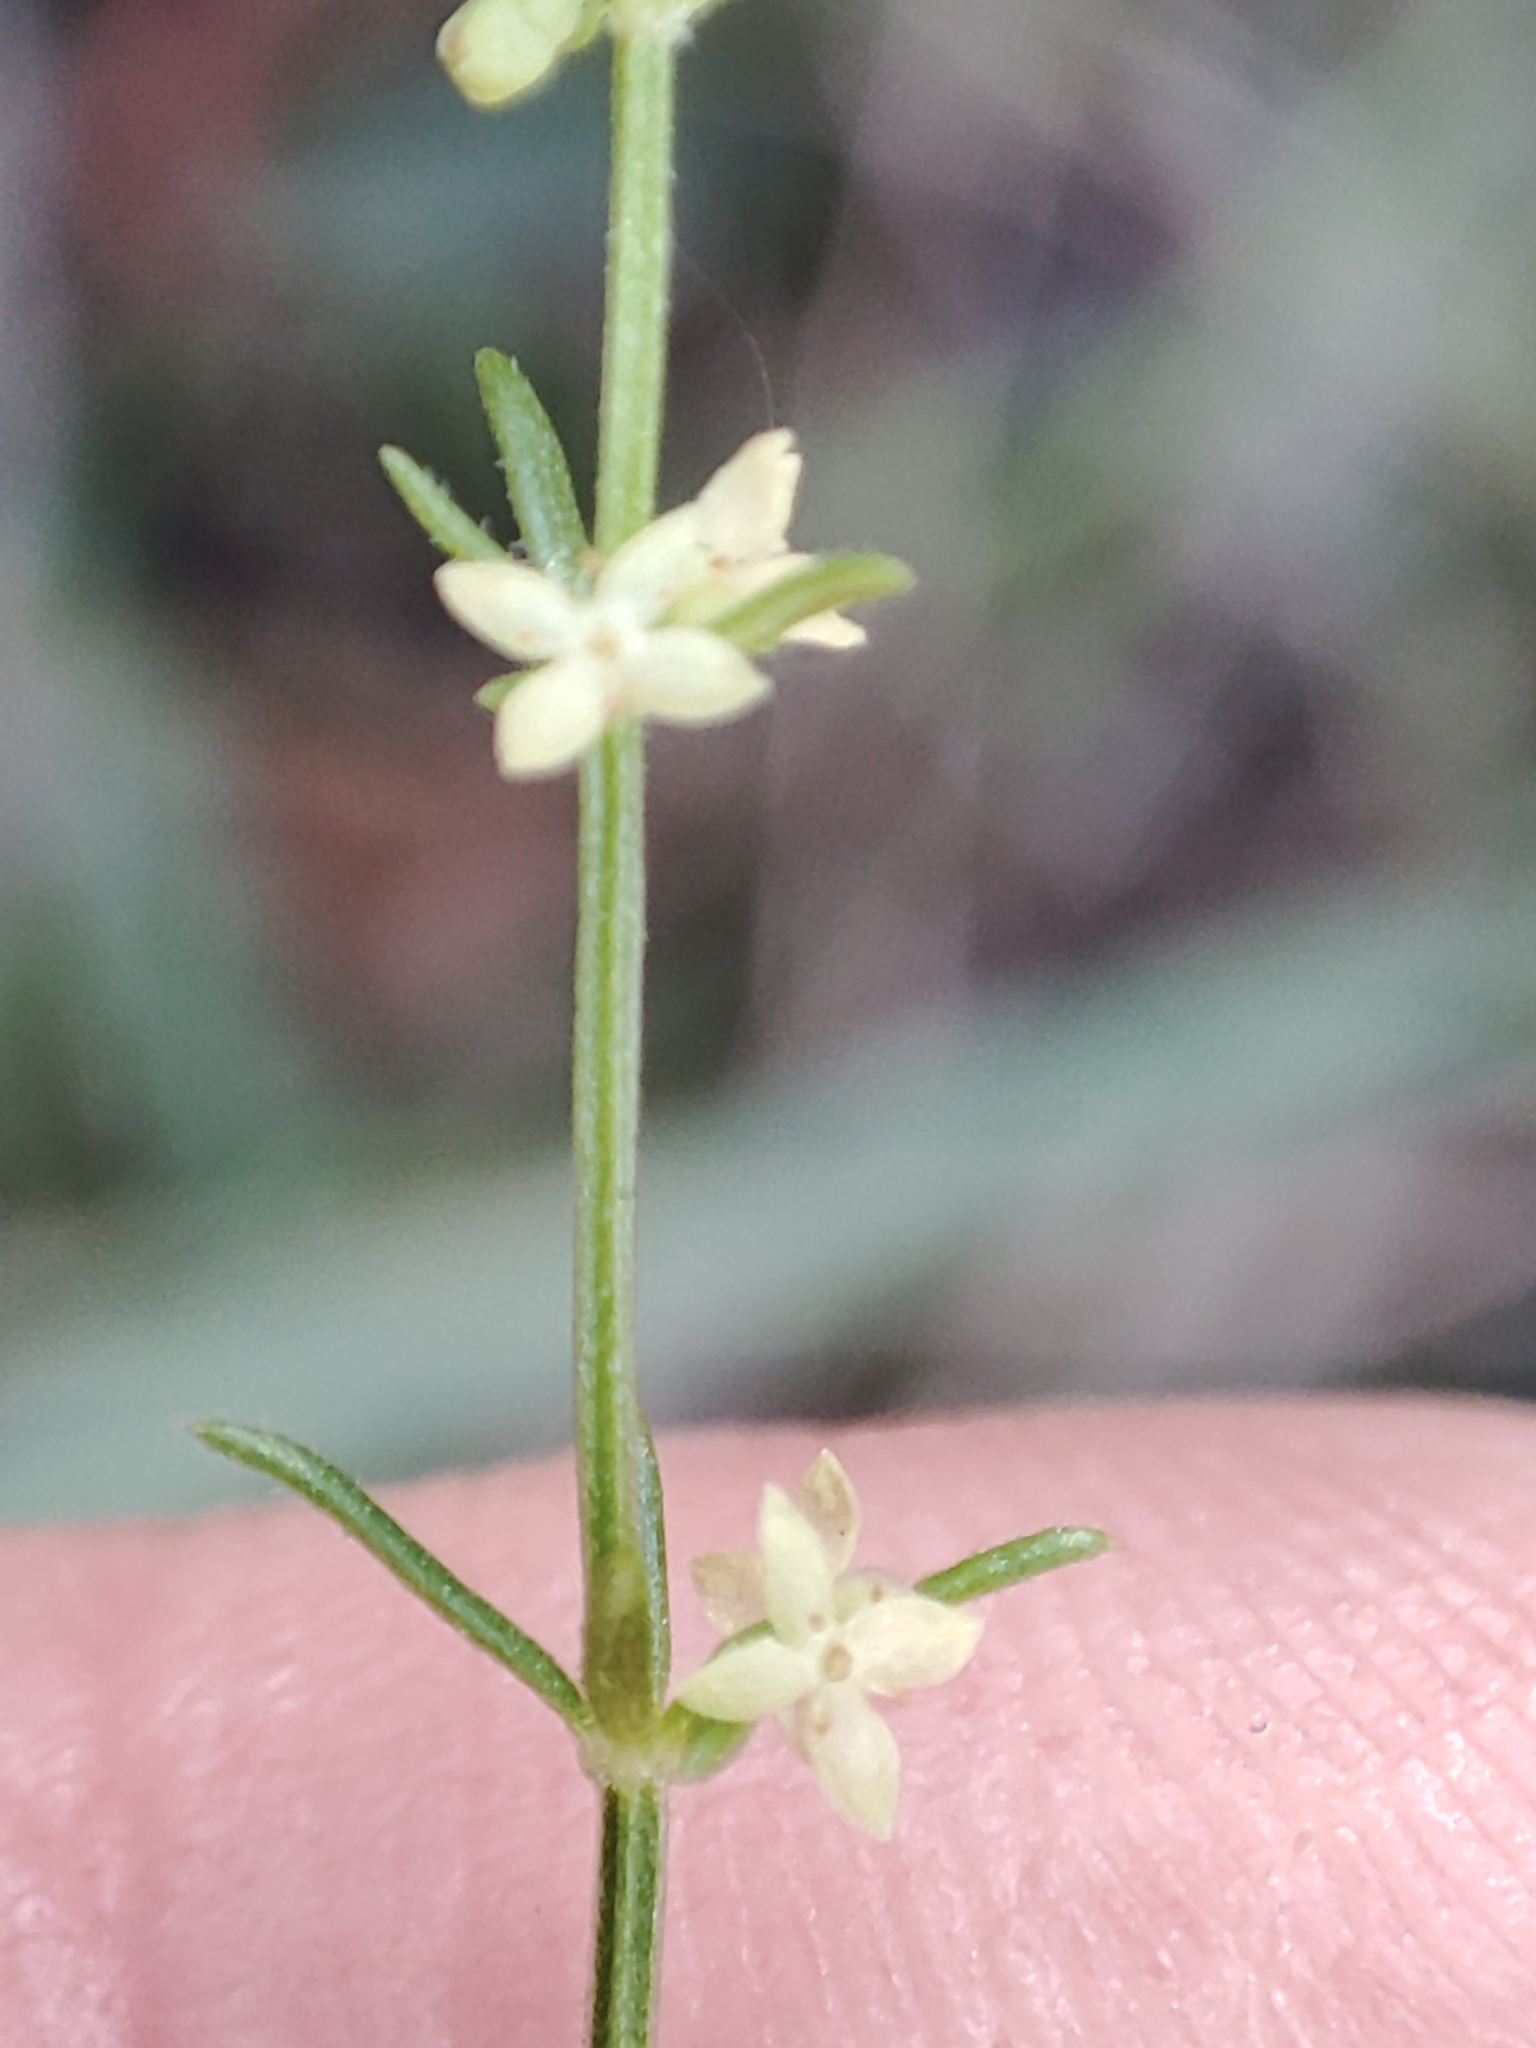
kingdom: Plantae
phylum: Tracheophyta
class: Magnoliopsida
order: Gentianales
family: Rubiaceae
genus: Galium
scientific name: Galium gaudichaudii
